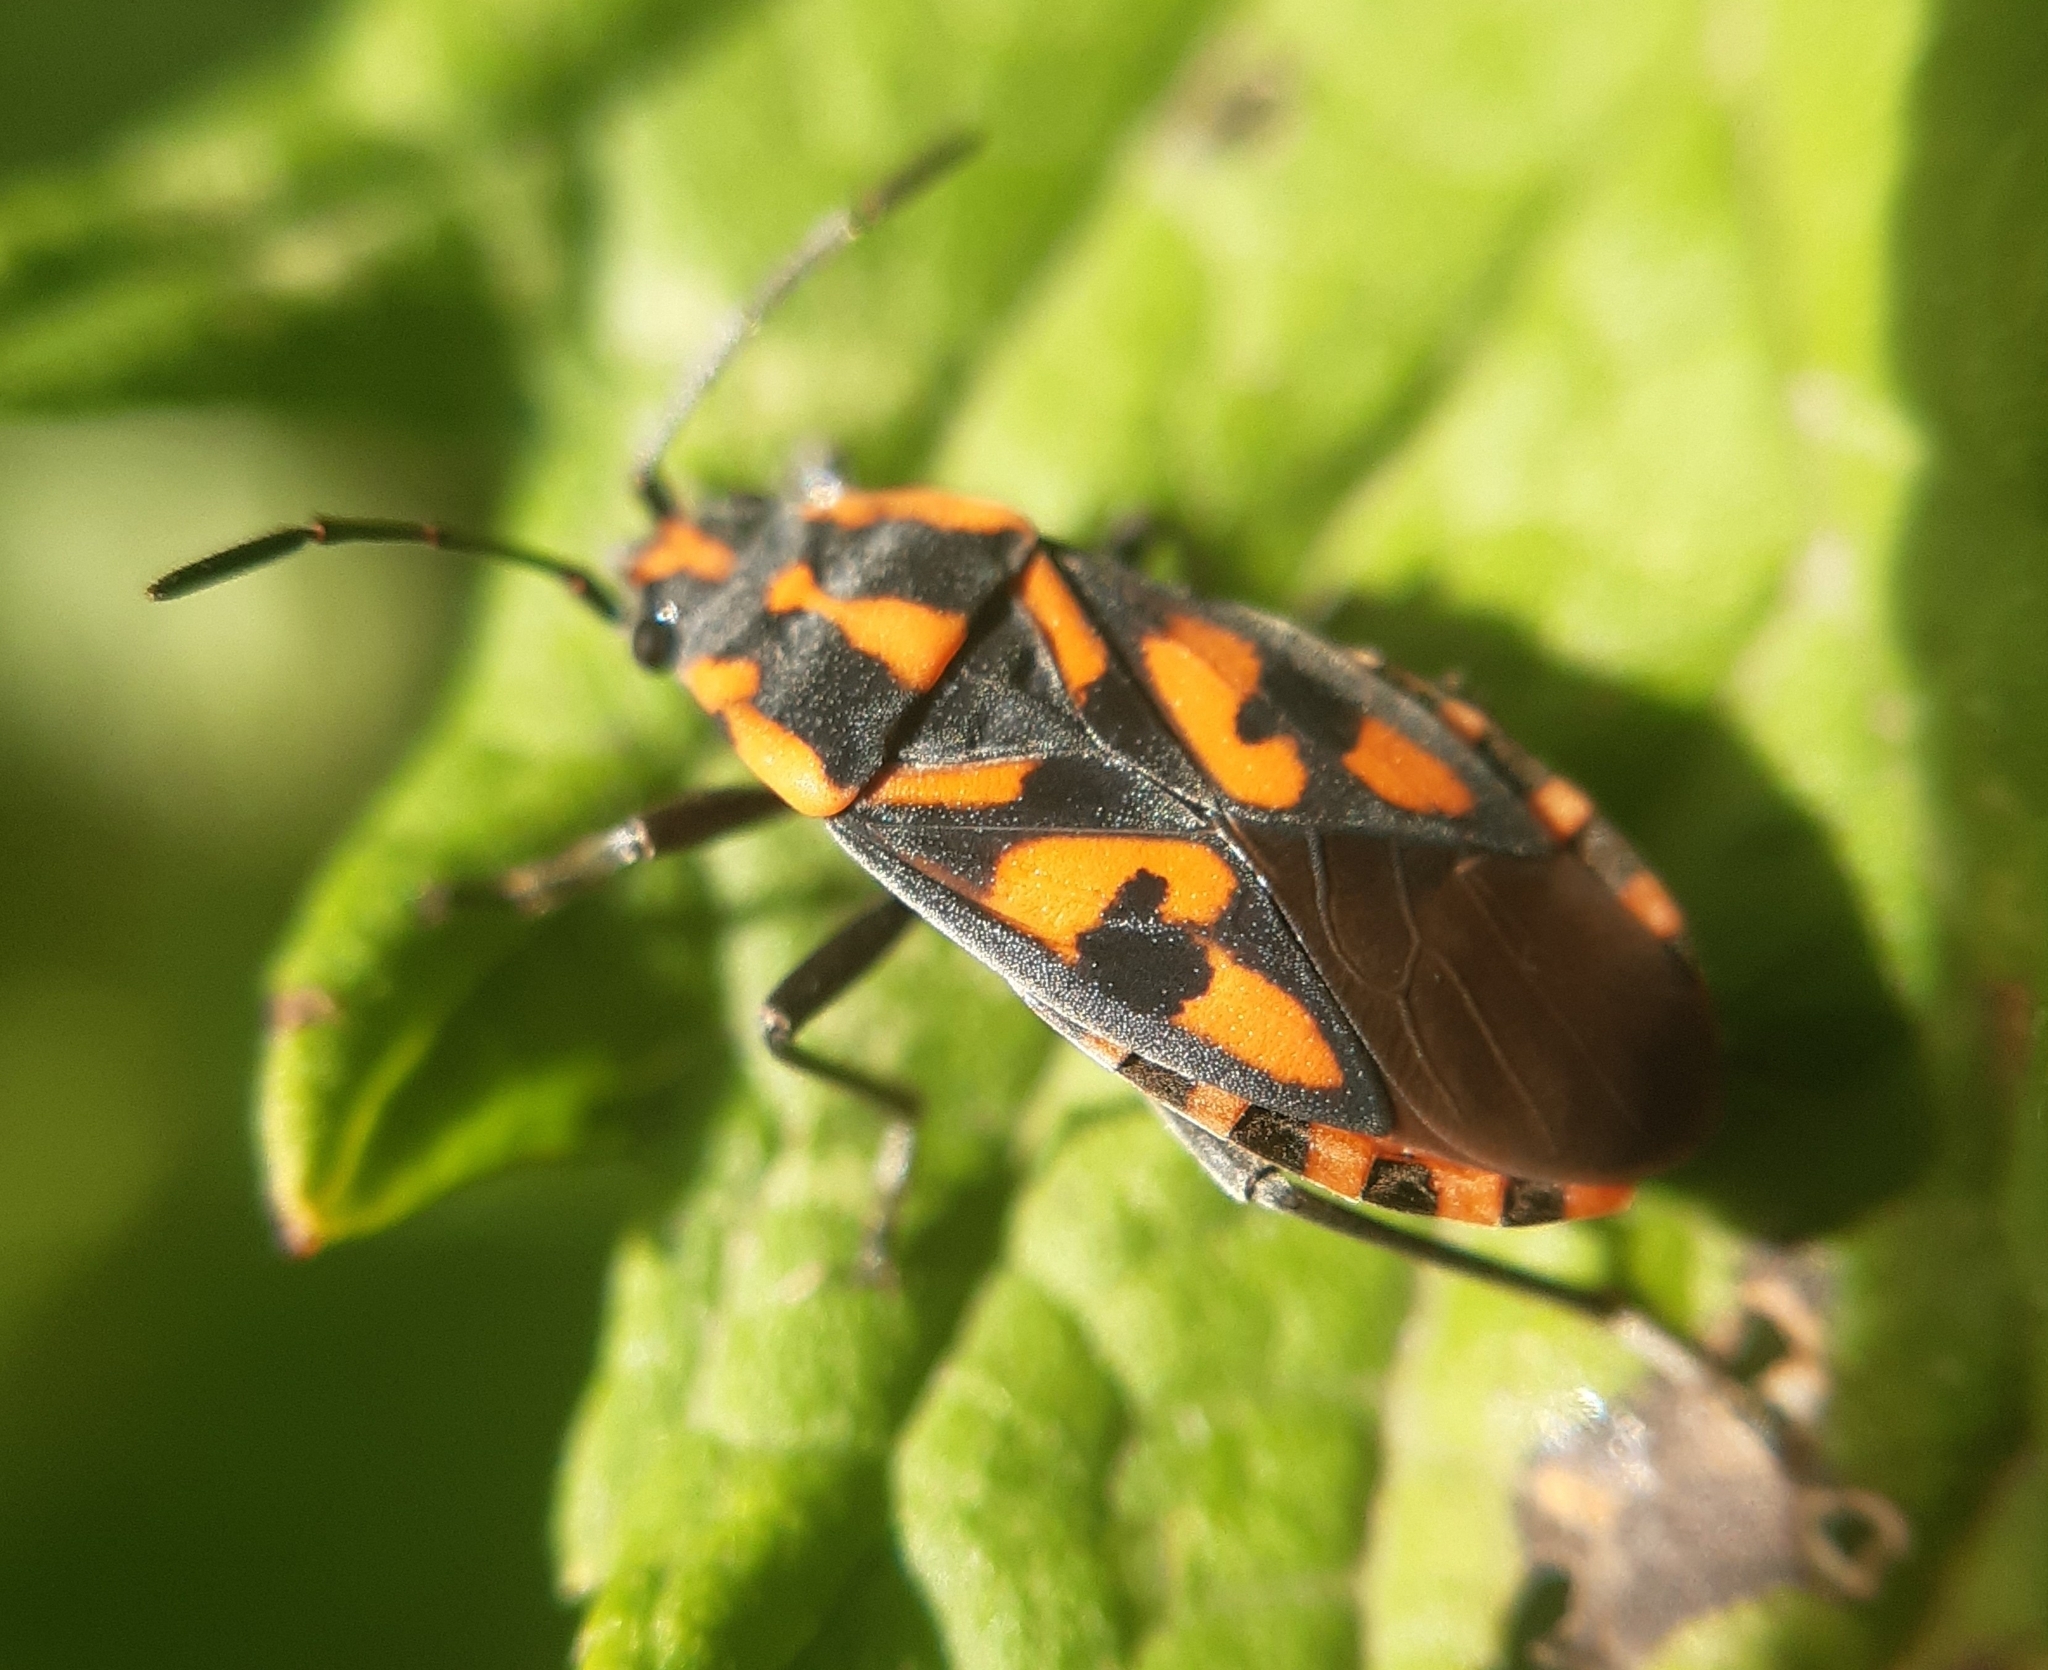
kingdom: Animalia
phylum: Arthropoda
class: Insecta
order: Hemiptera
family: Lygaeidae
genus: Spilostethus
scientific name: Spilostethus saxatilis
